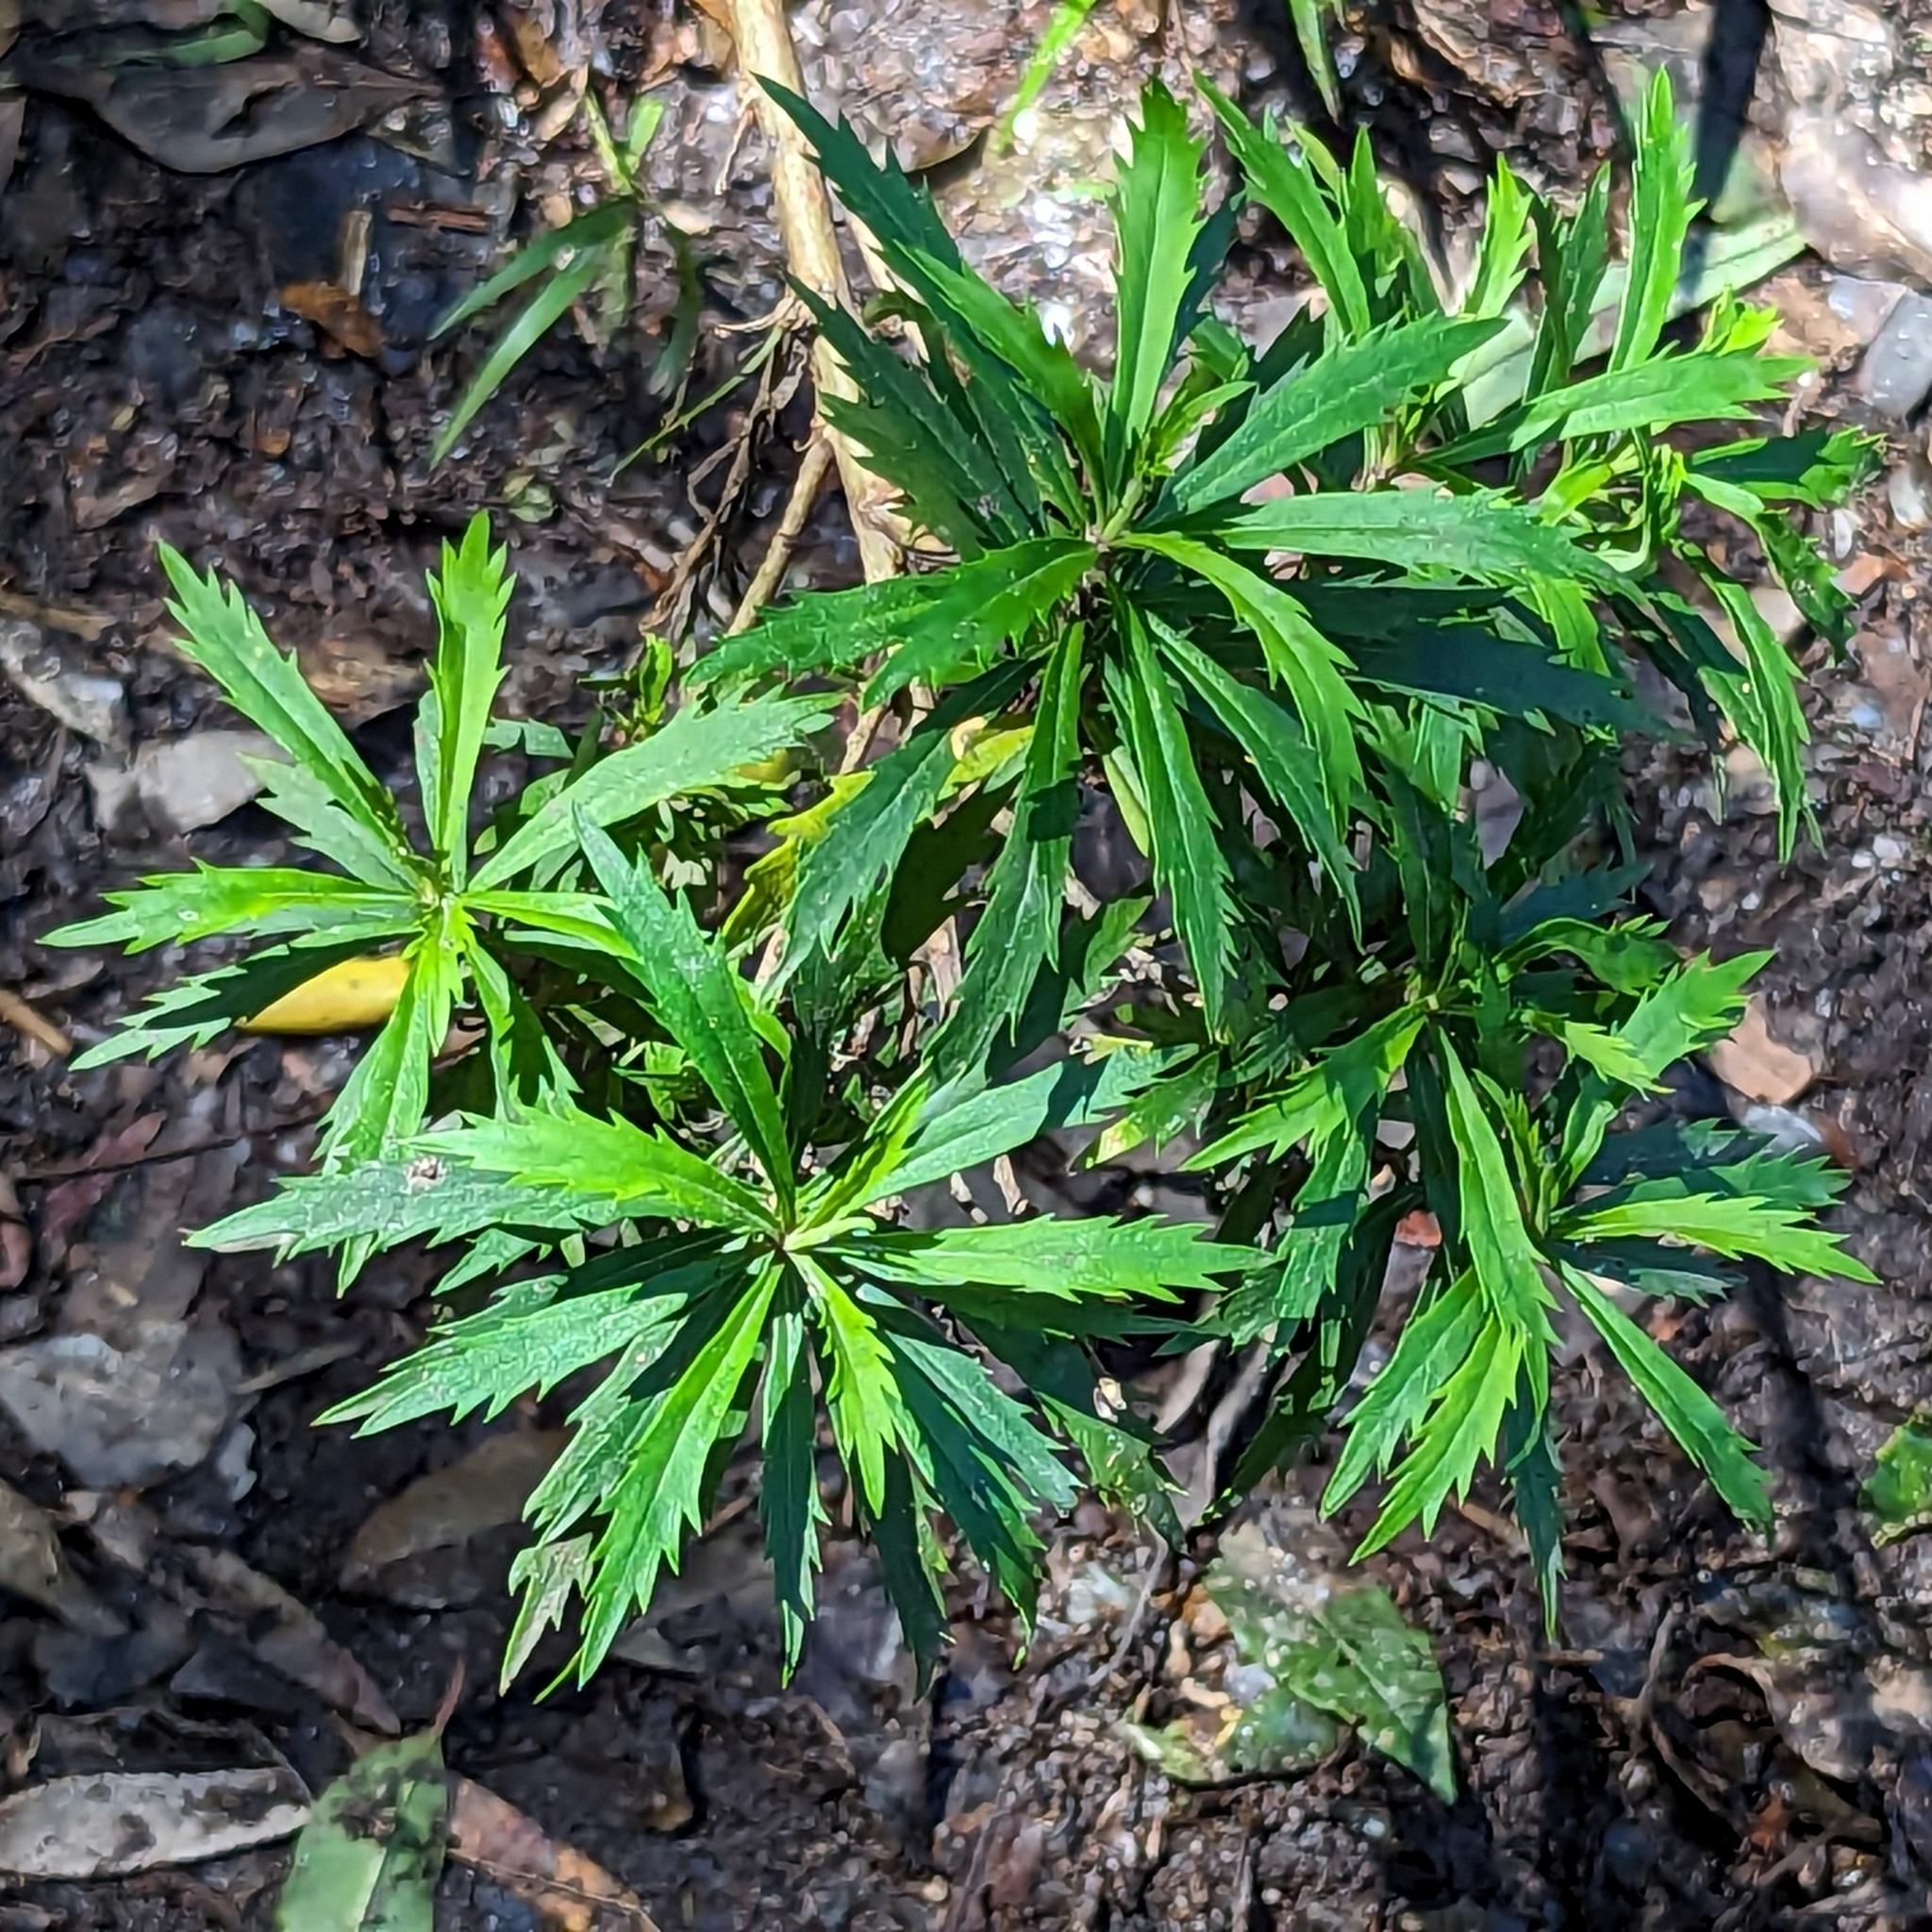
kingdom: Plantae
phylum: Tracheophyta
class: Magnoliopsida
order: Asterales
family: Asteraceae
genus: Osmitopsis
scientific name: Osmitopsis osmitoides
